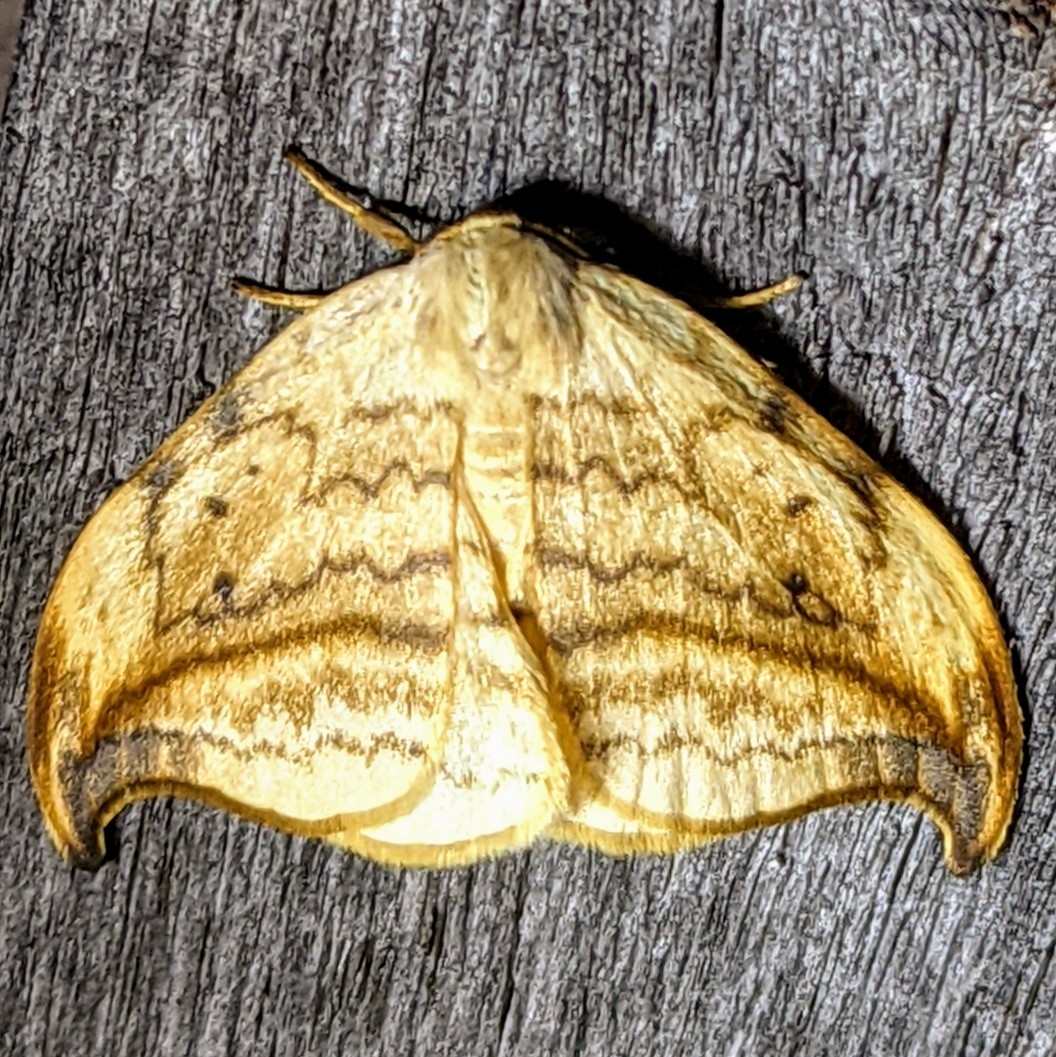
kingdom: Animalia
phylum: Arthropoda
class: Insecta
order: Lepidoptera
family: Drepanidae
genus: Drepana
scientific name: Drepana arcuata
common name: Arched hooktip moth
